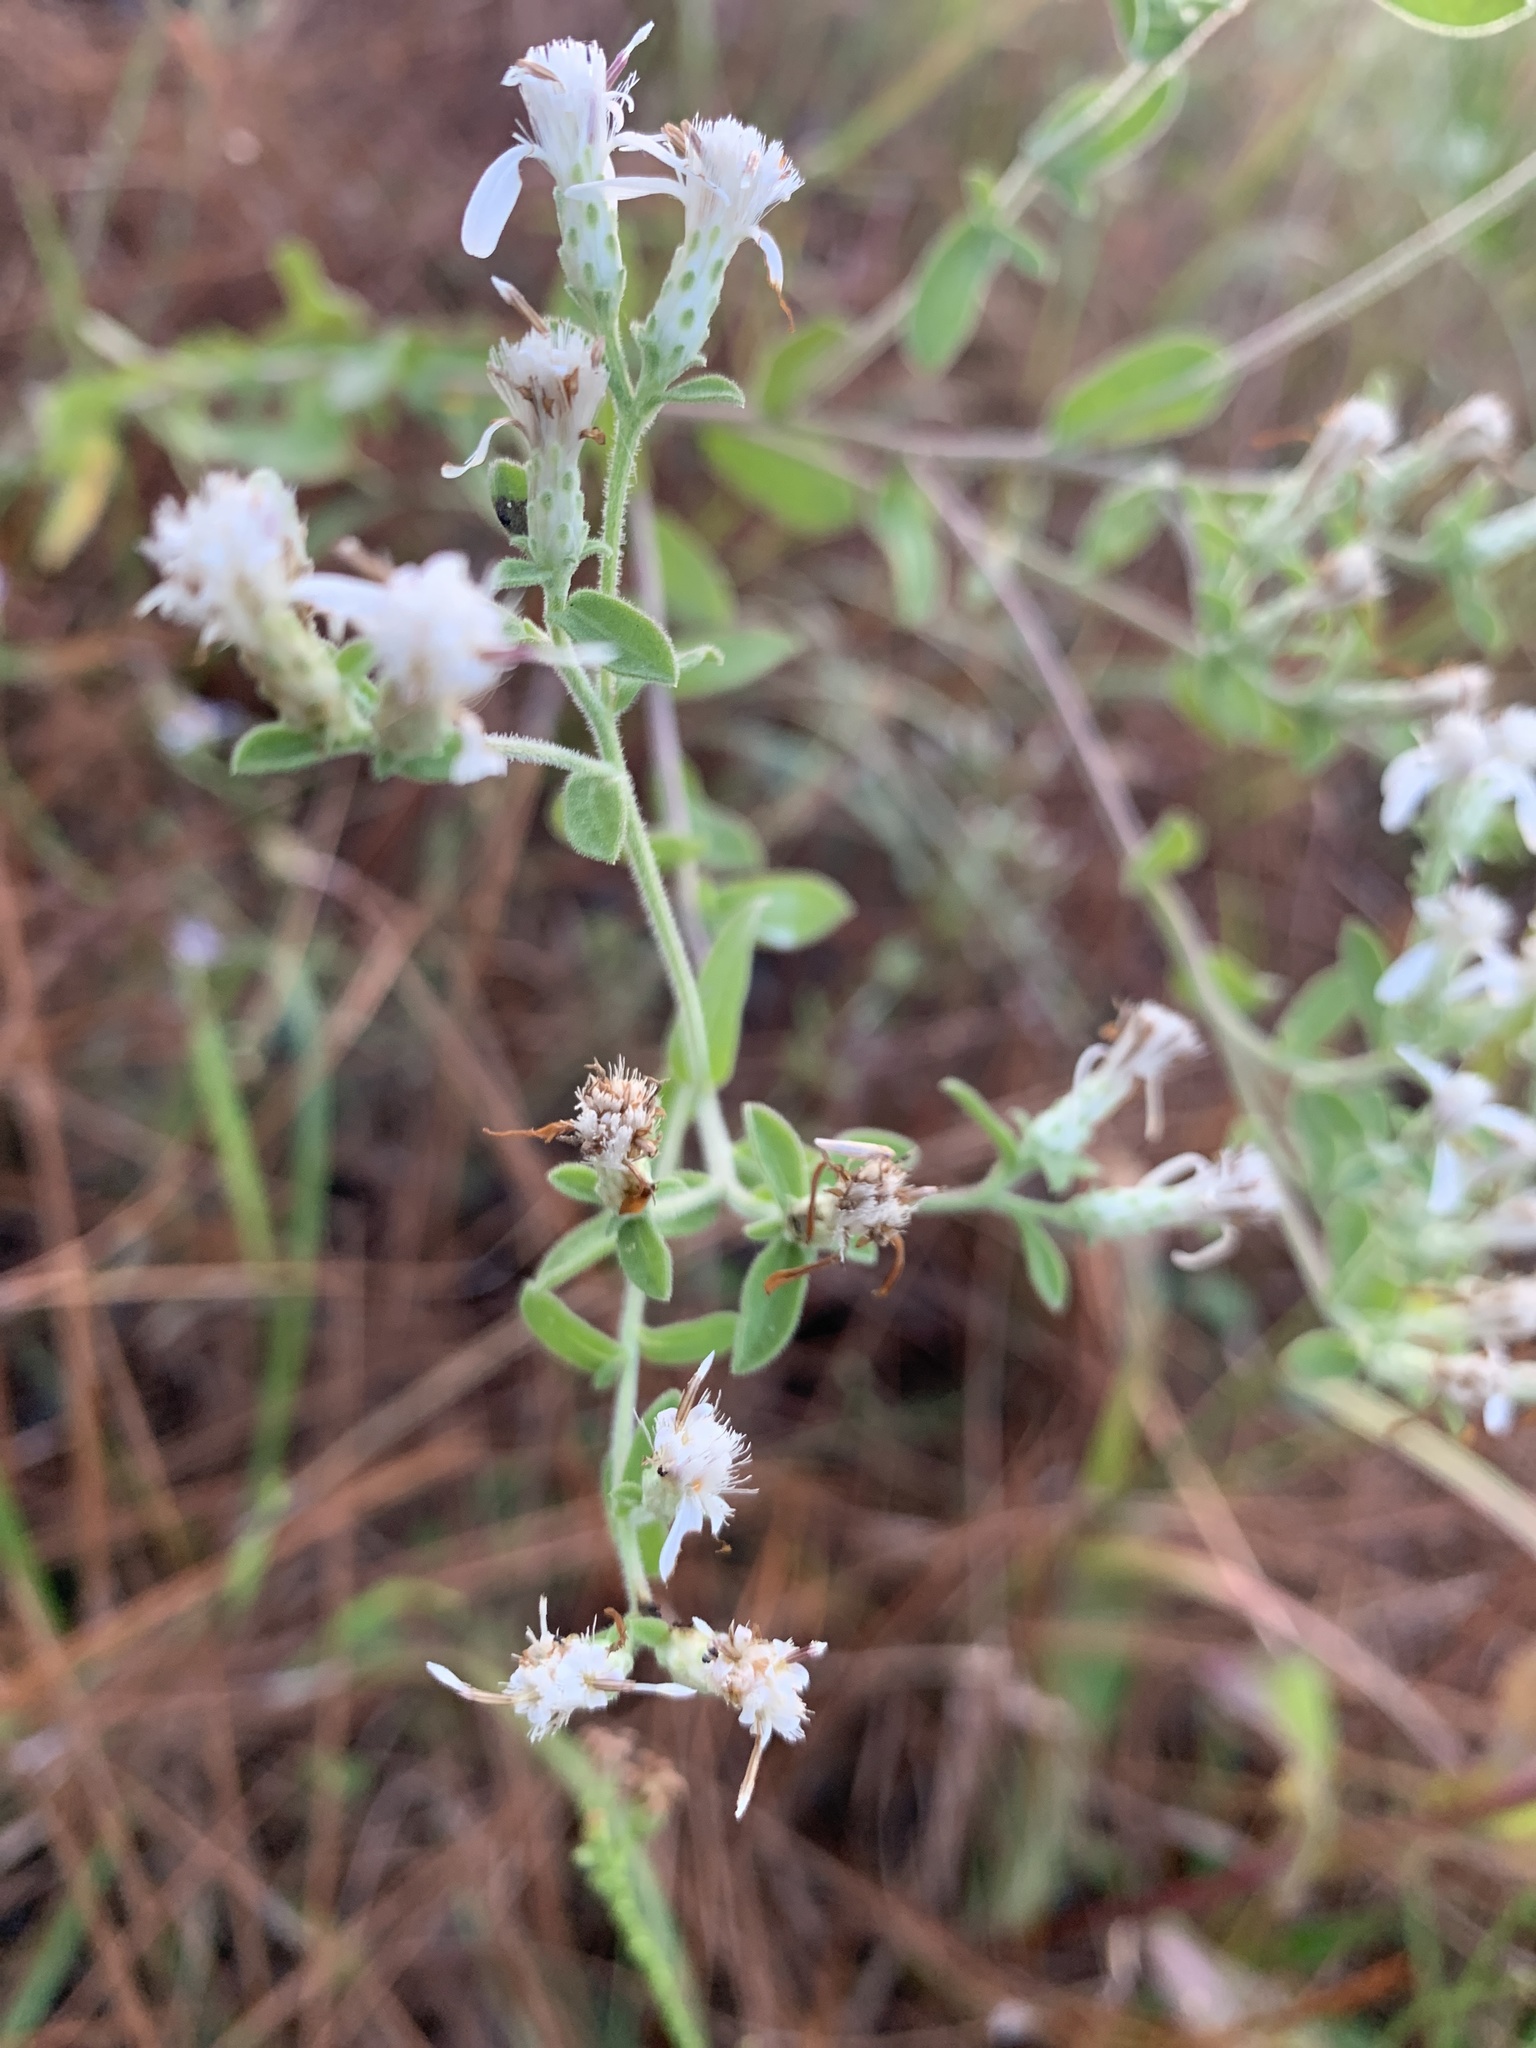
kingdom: Plantae
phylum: Tracheophyta
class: Magnoliopsida
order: Asterales
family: Asteraceae
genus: Sericocarpus
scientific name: Sericocarpus tortifolius
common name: Dixie aster
